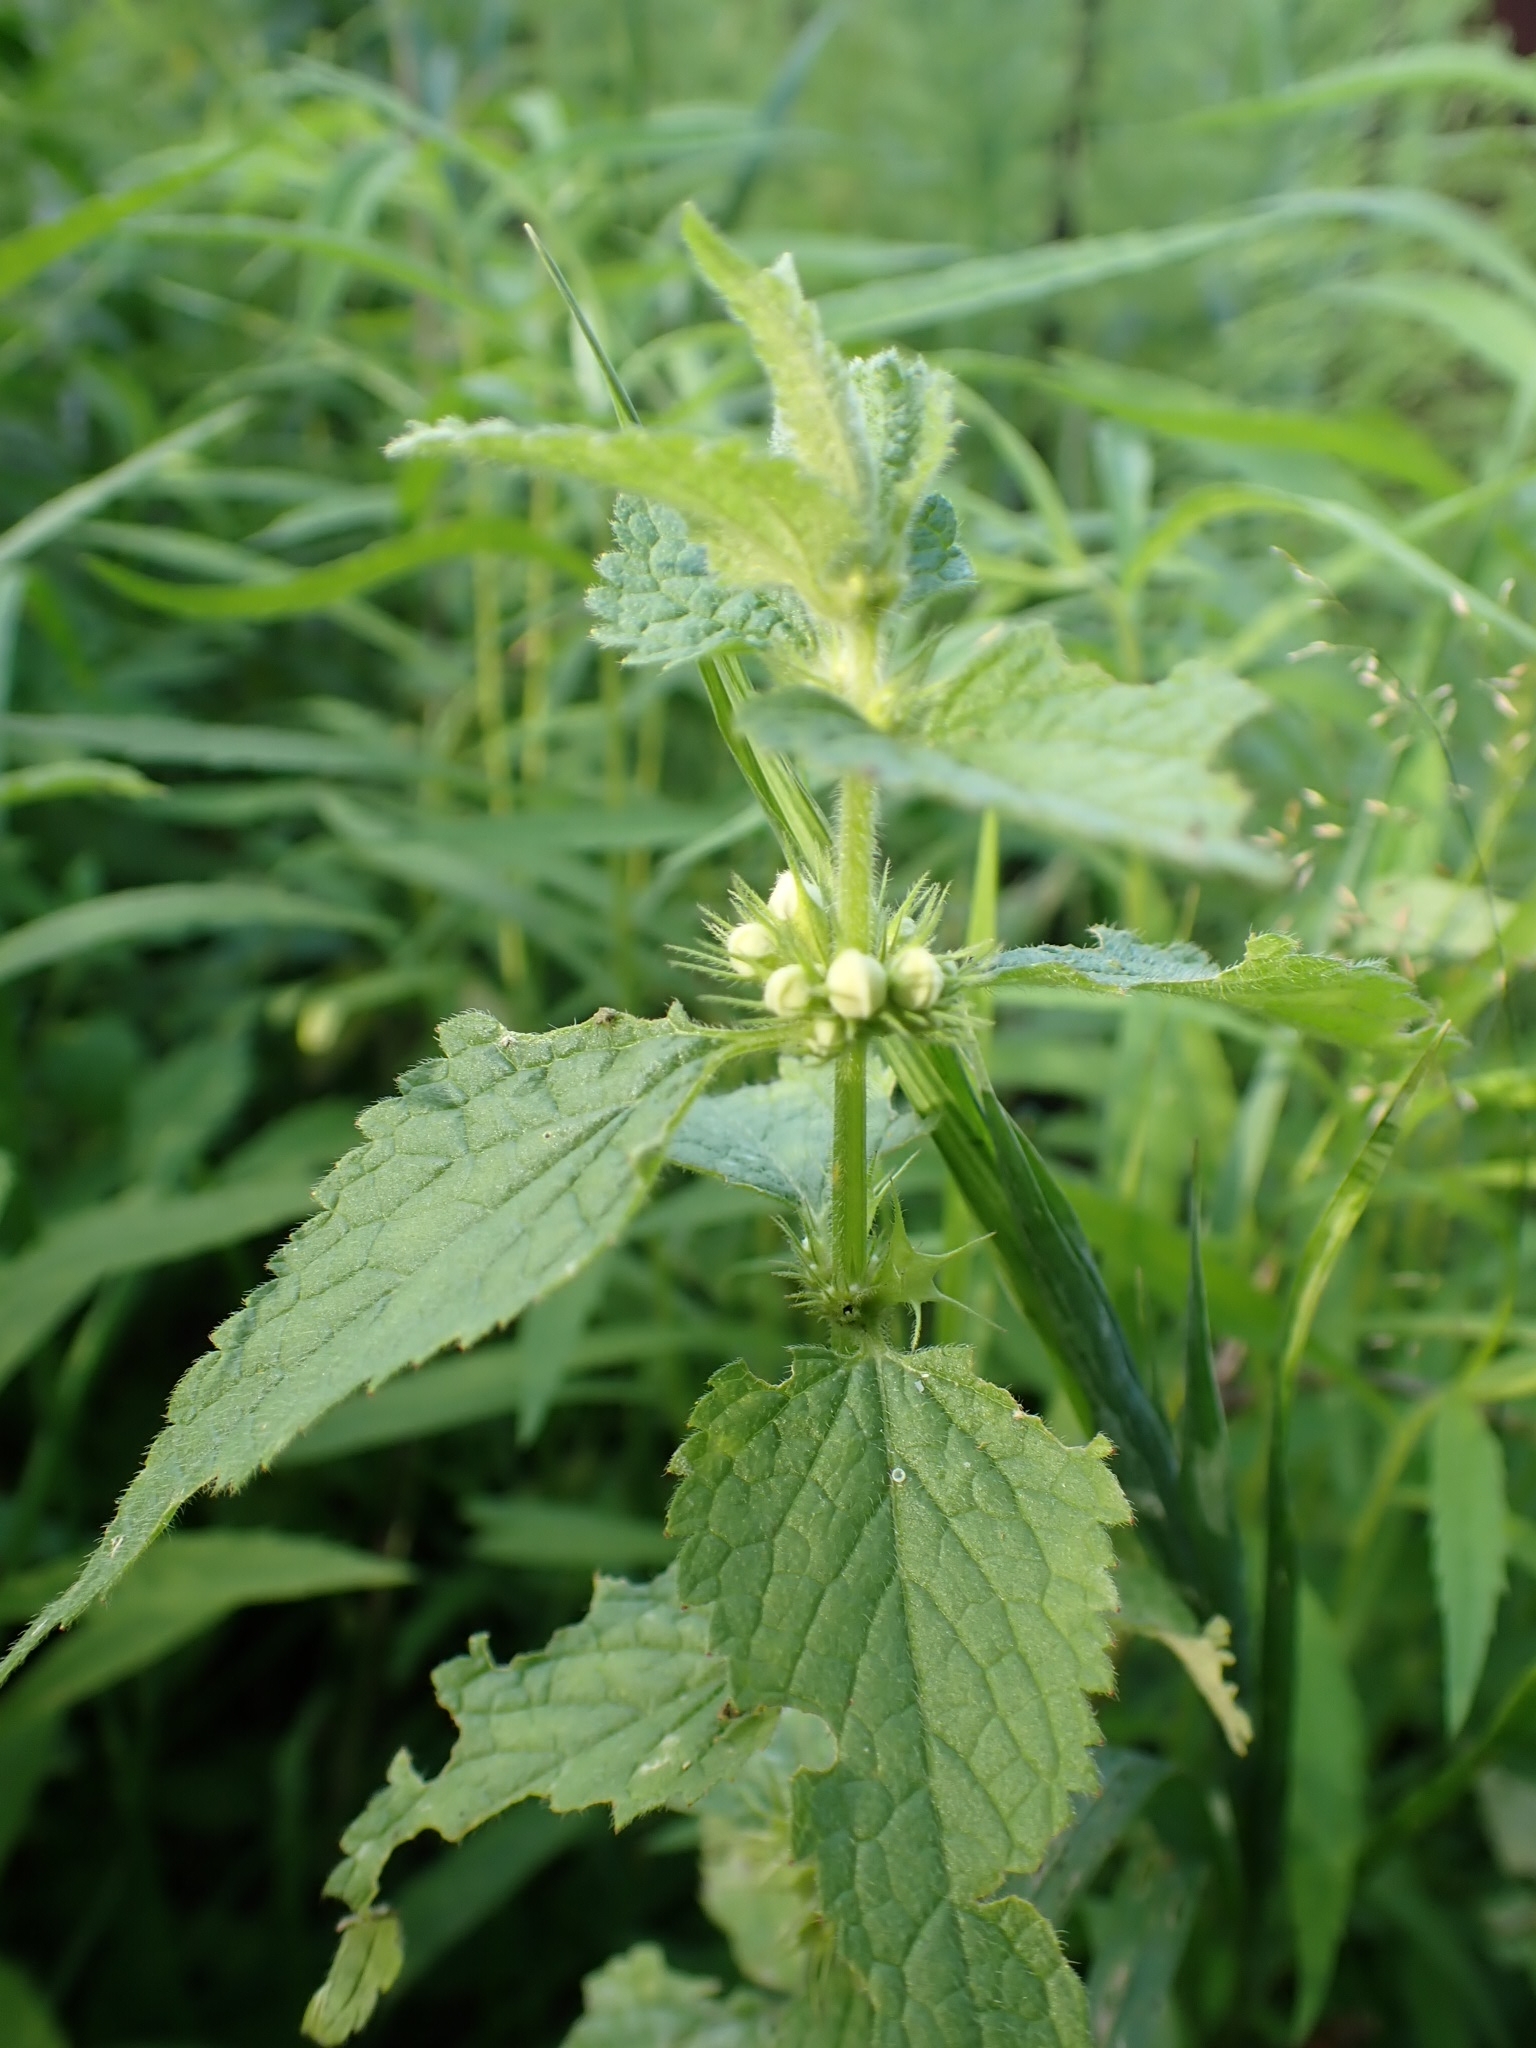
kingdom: Plantae
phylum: Tracheophyta
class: Magnoliopsida
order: Lamiales
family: Lamiaceae
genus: Lamium
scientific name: Lamium album
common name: White dead-nettle
